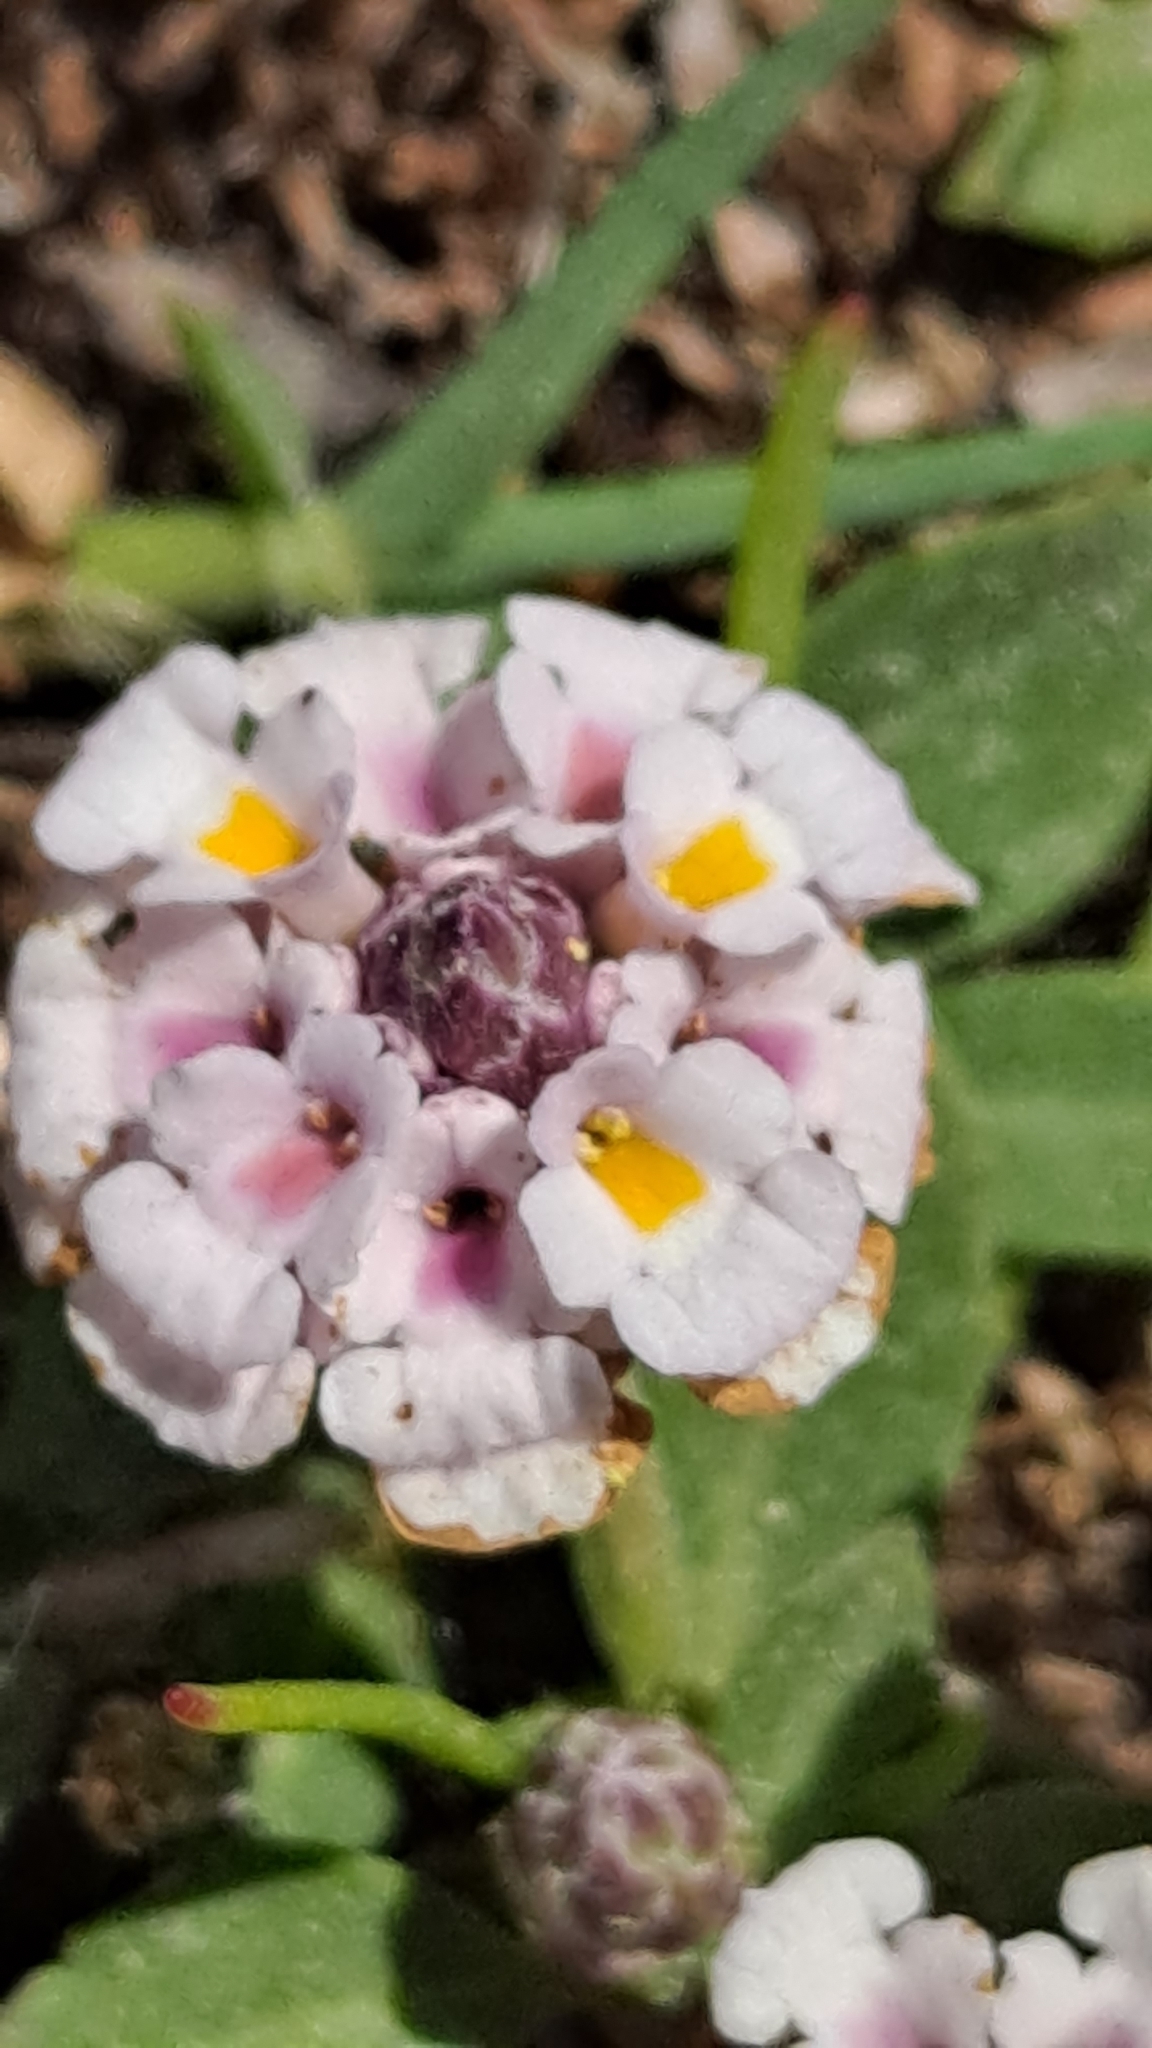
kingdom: Plantae
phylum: Tracheophyta
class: Magnoliopsida
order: Lamiales
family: Verbenaceae
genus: Phyla
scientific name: Phyla nodiflora
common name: Frogfruit
